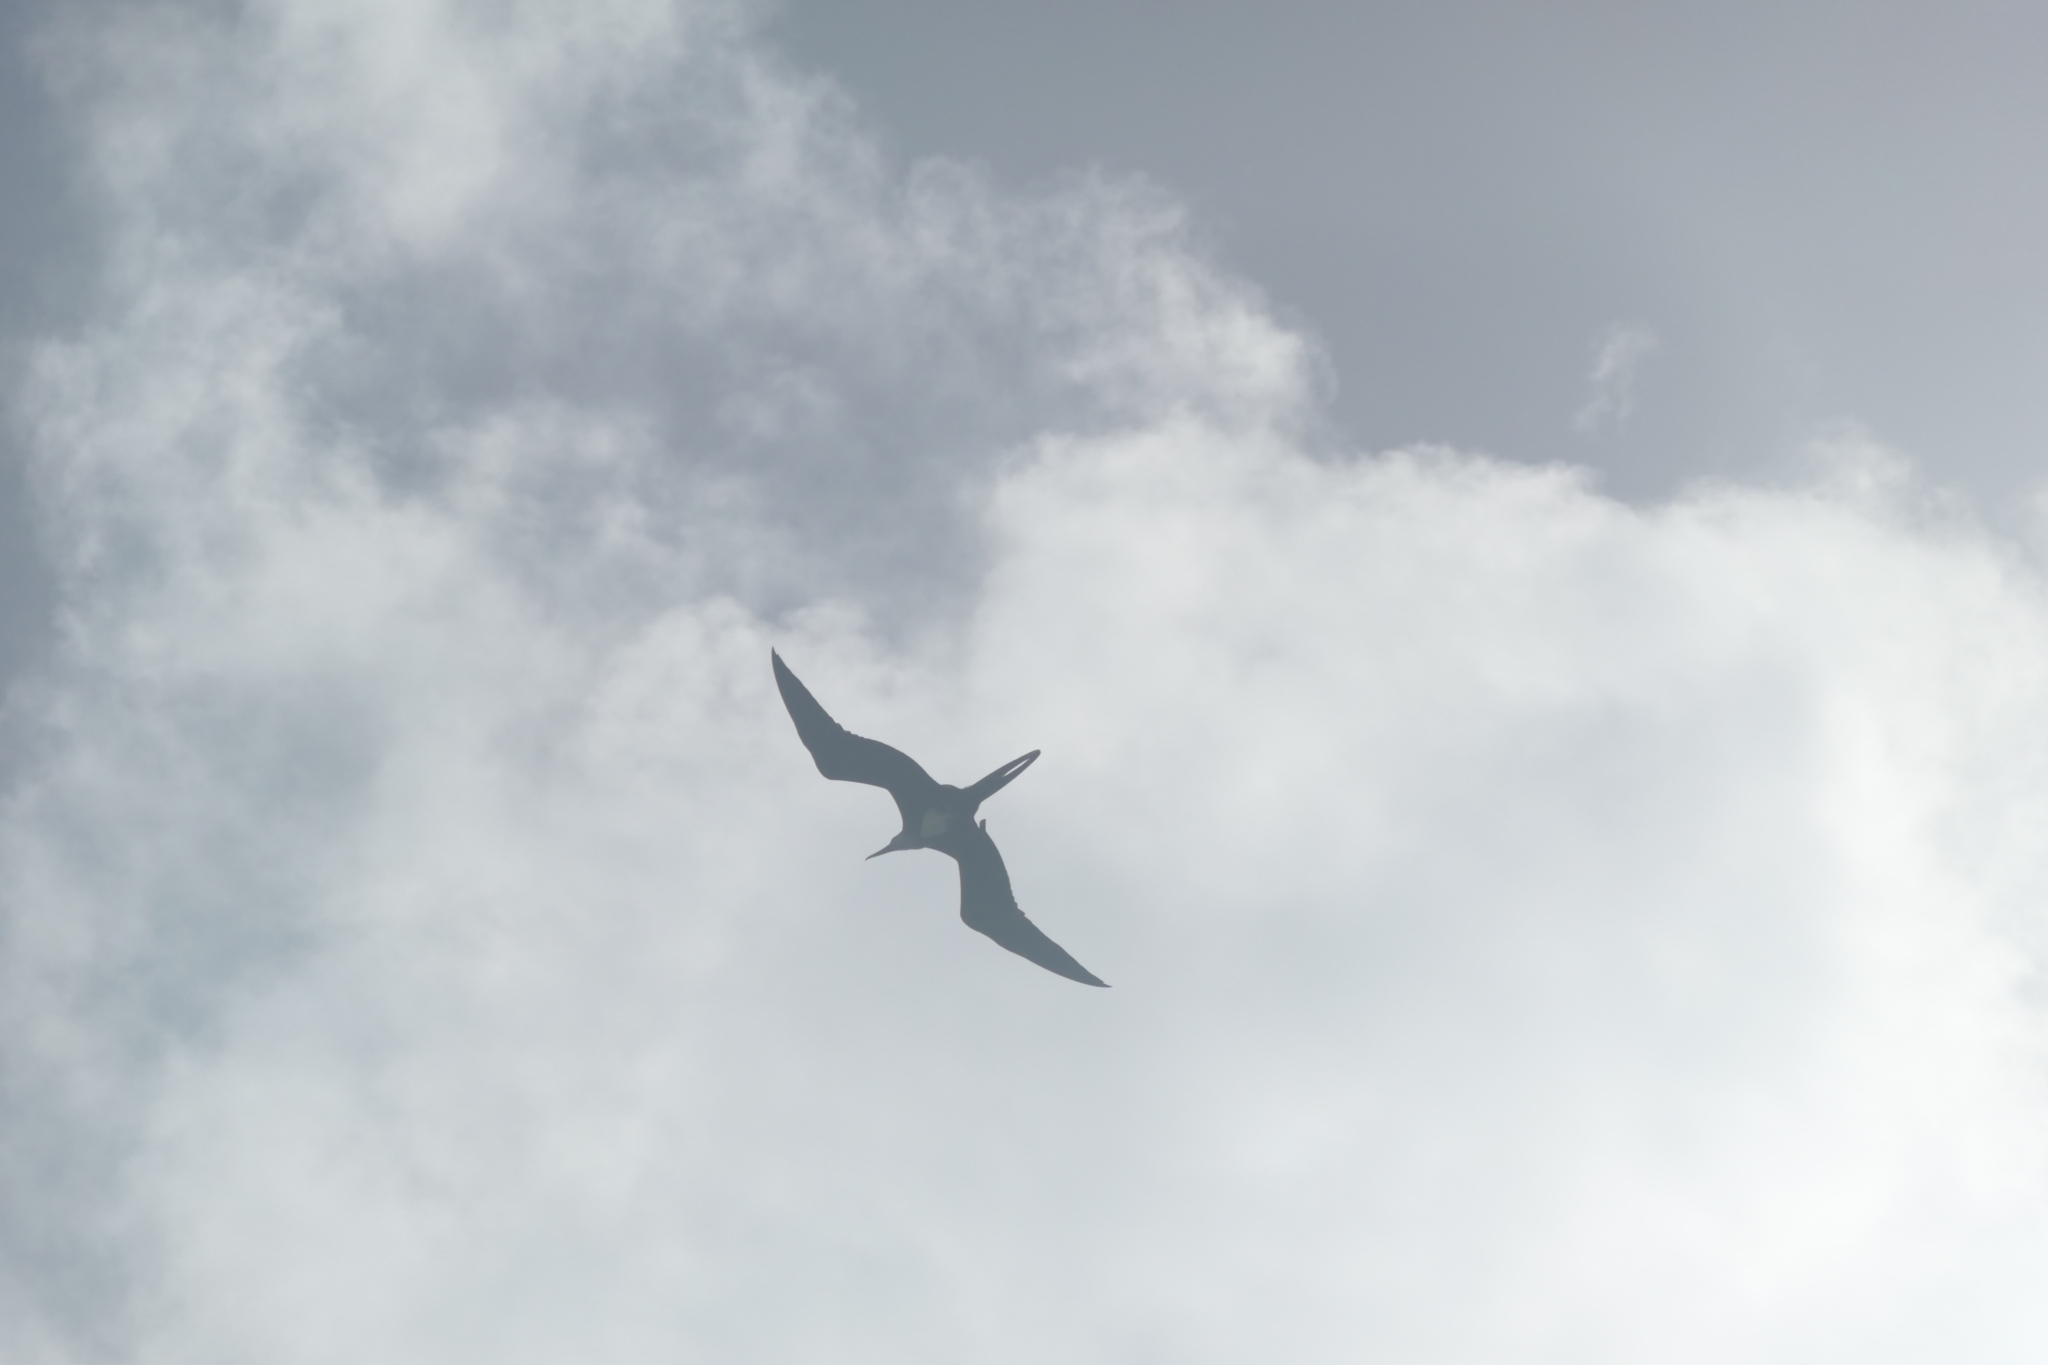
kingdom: Animalia
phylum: Chordata
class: Aves
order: Suliformes
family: Fregatidae
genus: Fregata
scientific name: Fregata magnificens
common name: Magnificent frigatebird
